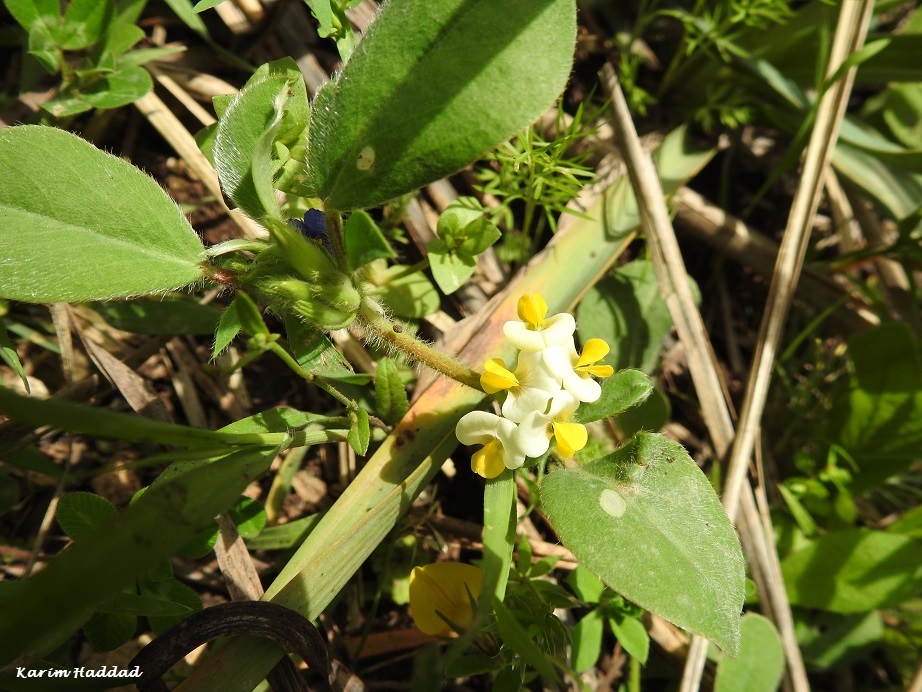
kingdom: Plantae
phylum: Tracheophyta
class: Magnoliopsida
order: Fabales
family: Fabaceae
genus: Tripodion
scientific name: Tripodion tetraphyllum
